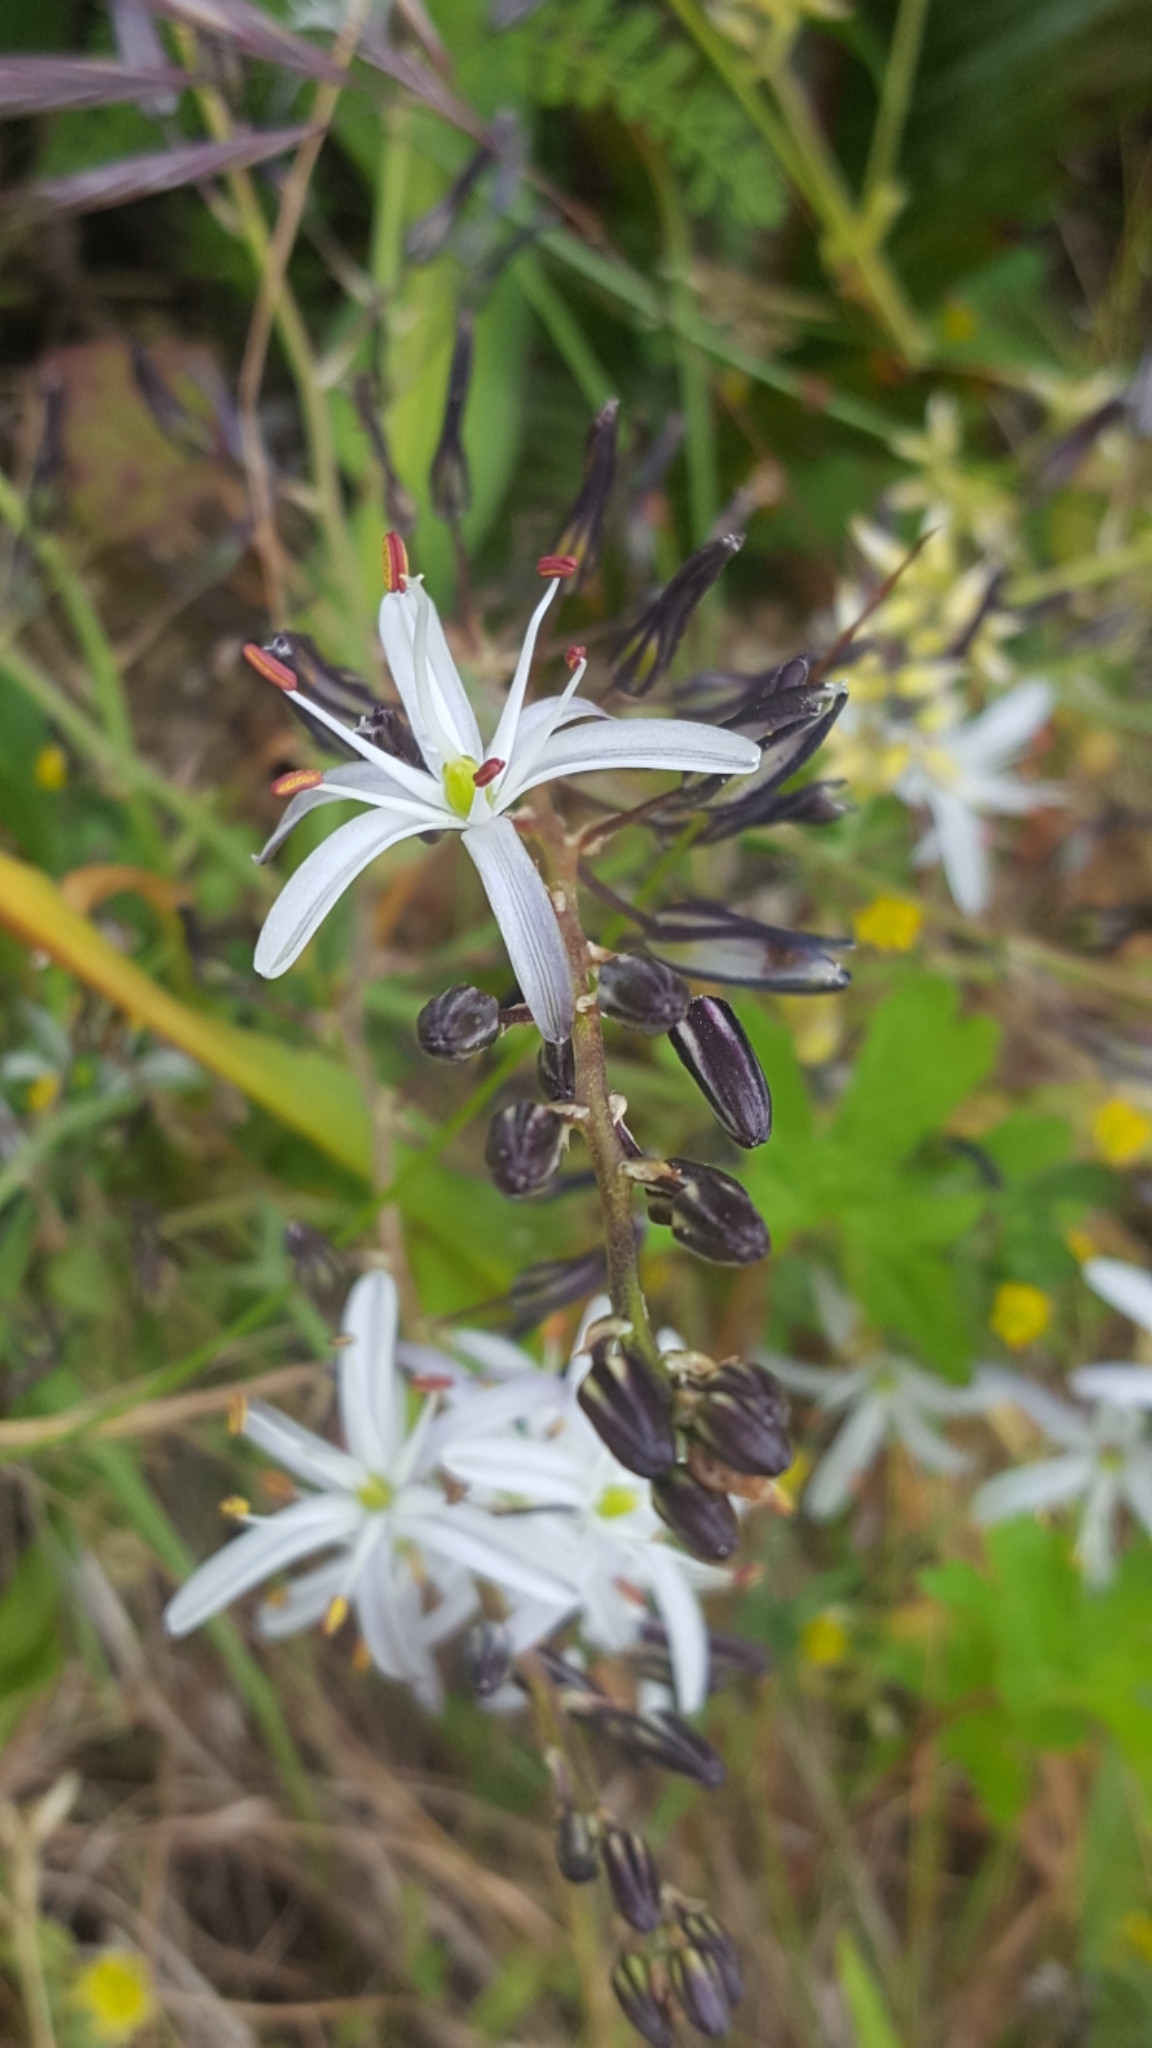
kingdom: Plantae
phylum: Tracheophyta
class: Liliopsida
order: Asparagales
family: Asparagaceae
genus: Chlorogalum
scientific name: Chlorogalum pomeridianum
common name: Amole
